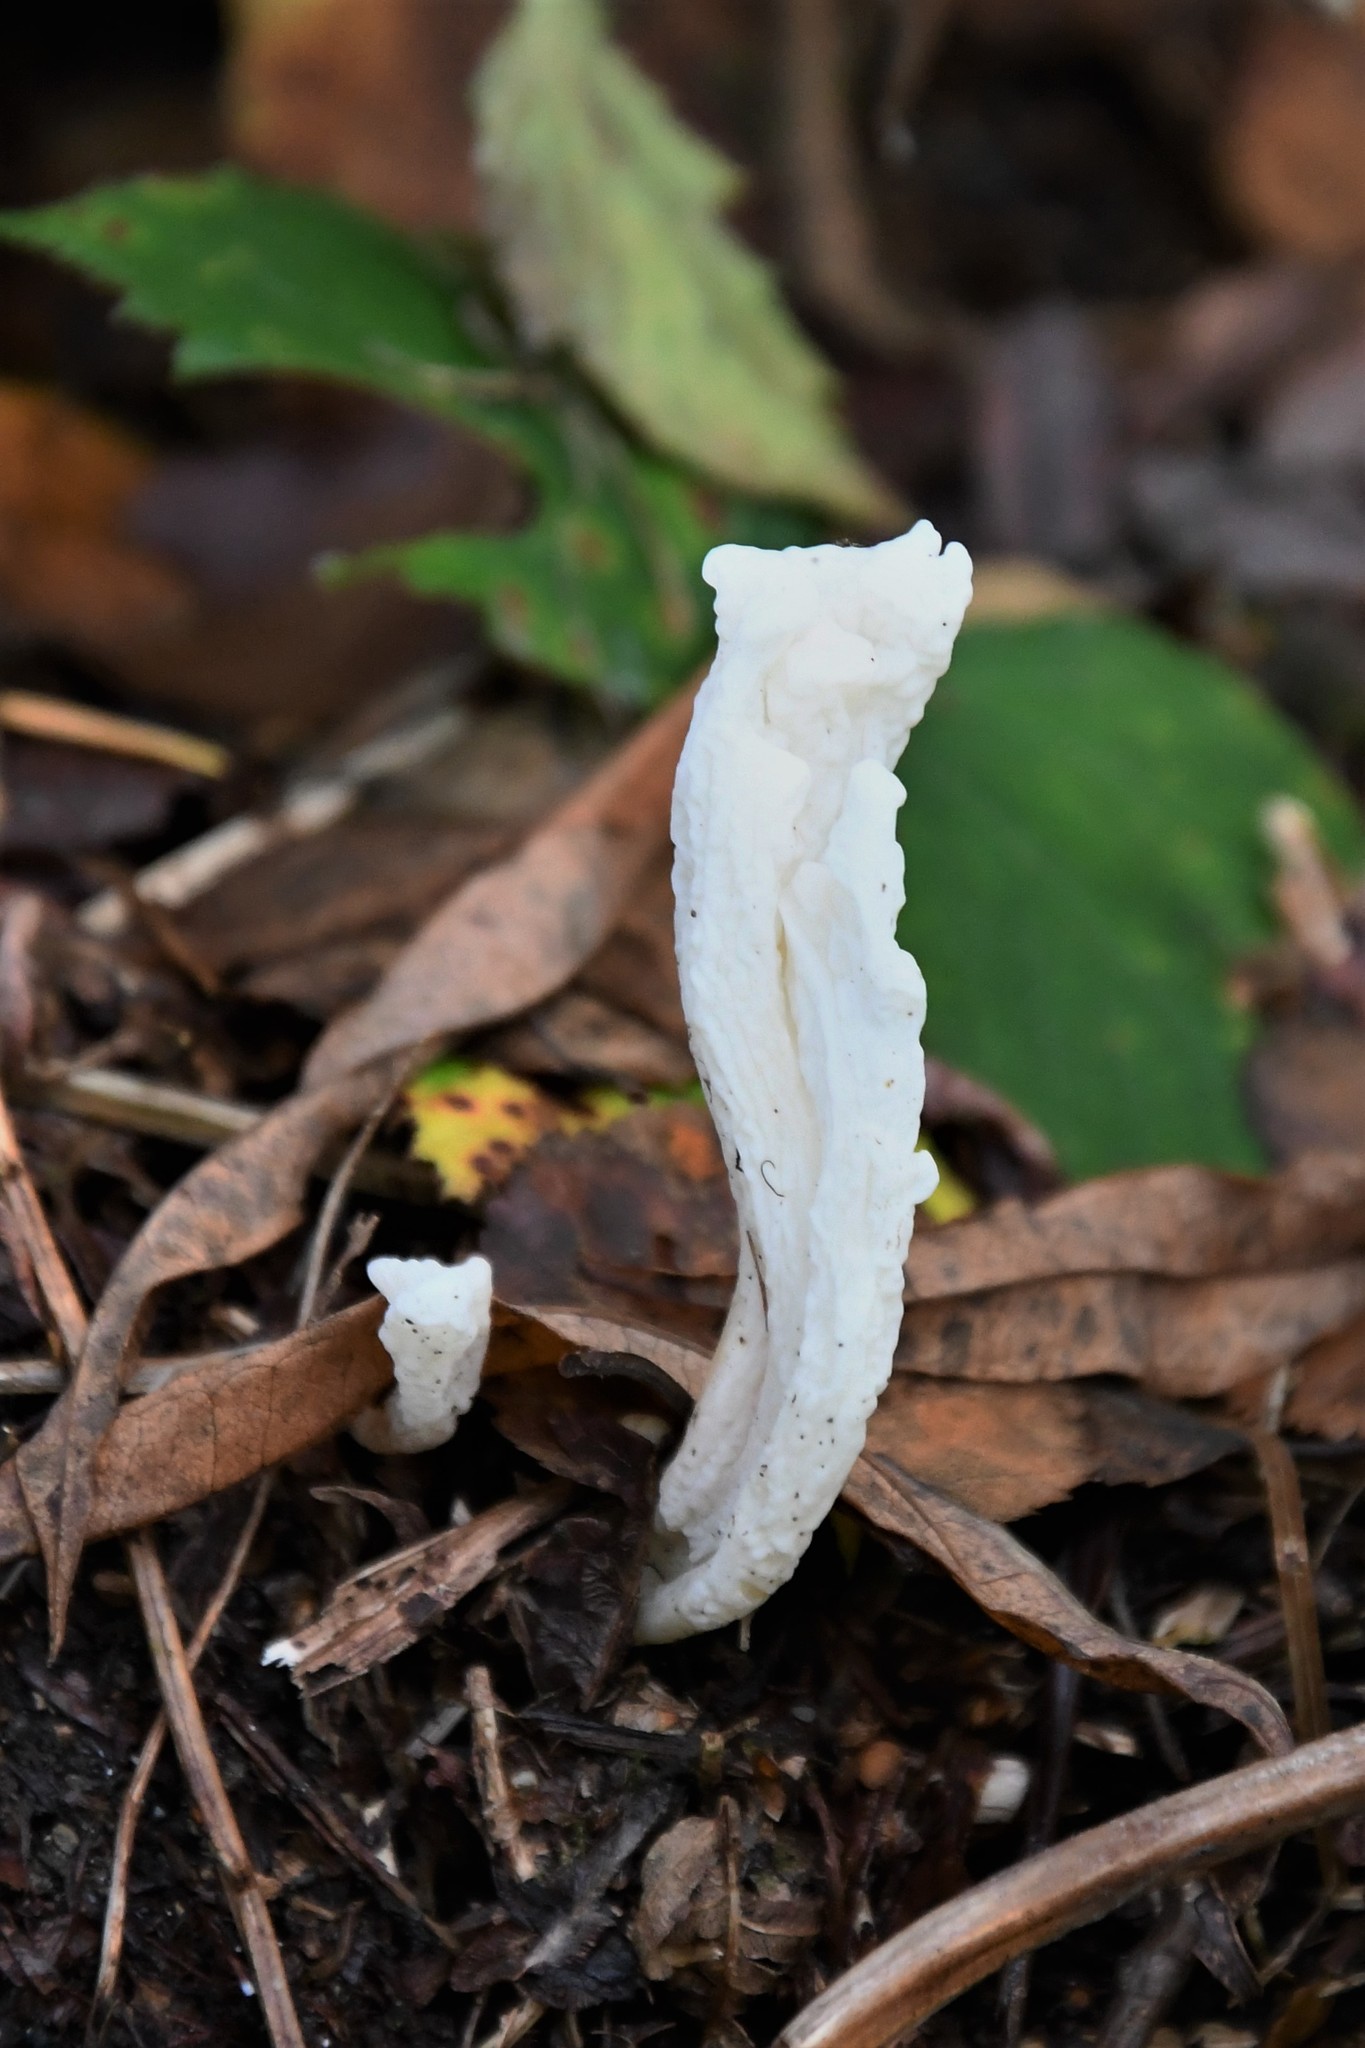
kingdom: Fungi
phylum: Basidiomycota
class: Agaricomycetes
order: Cantharellales
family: Hydnaceae
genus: Clavulina
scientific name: Clavulina rugosa
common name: Wrinkled club
